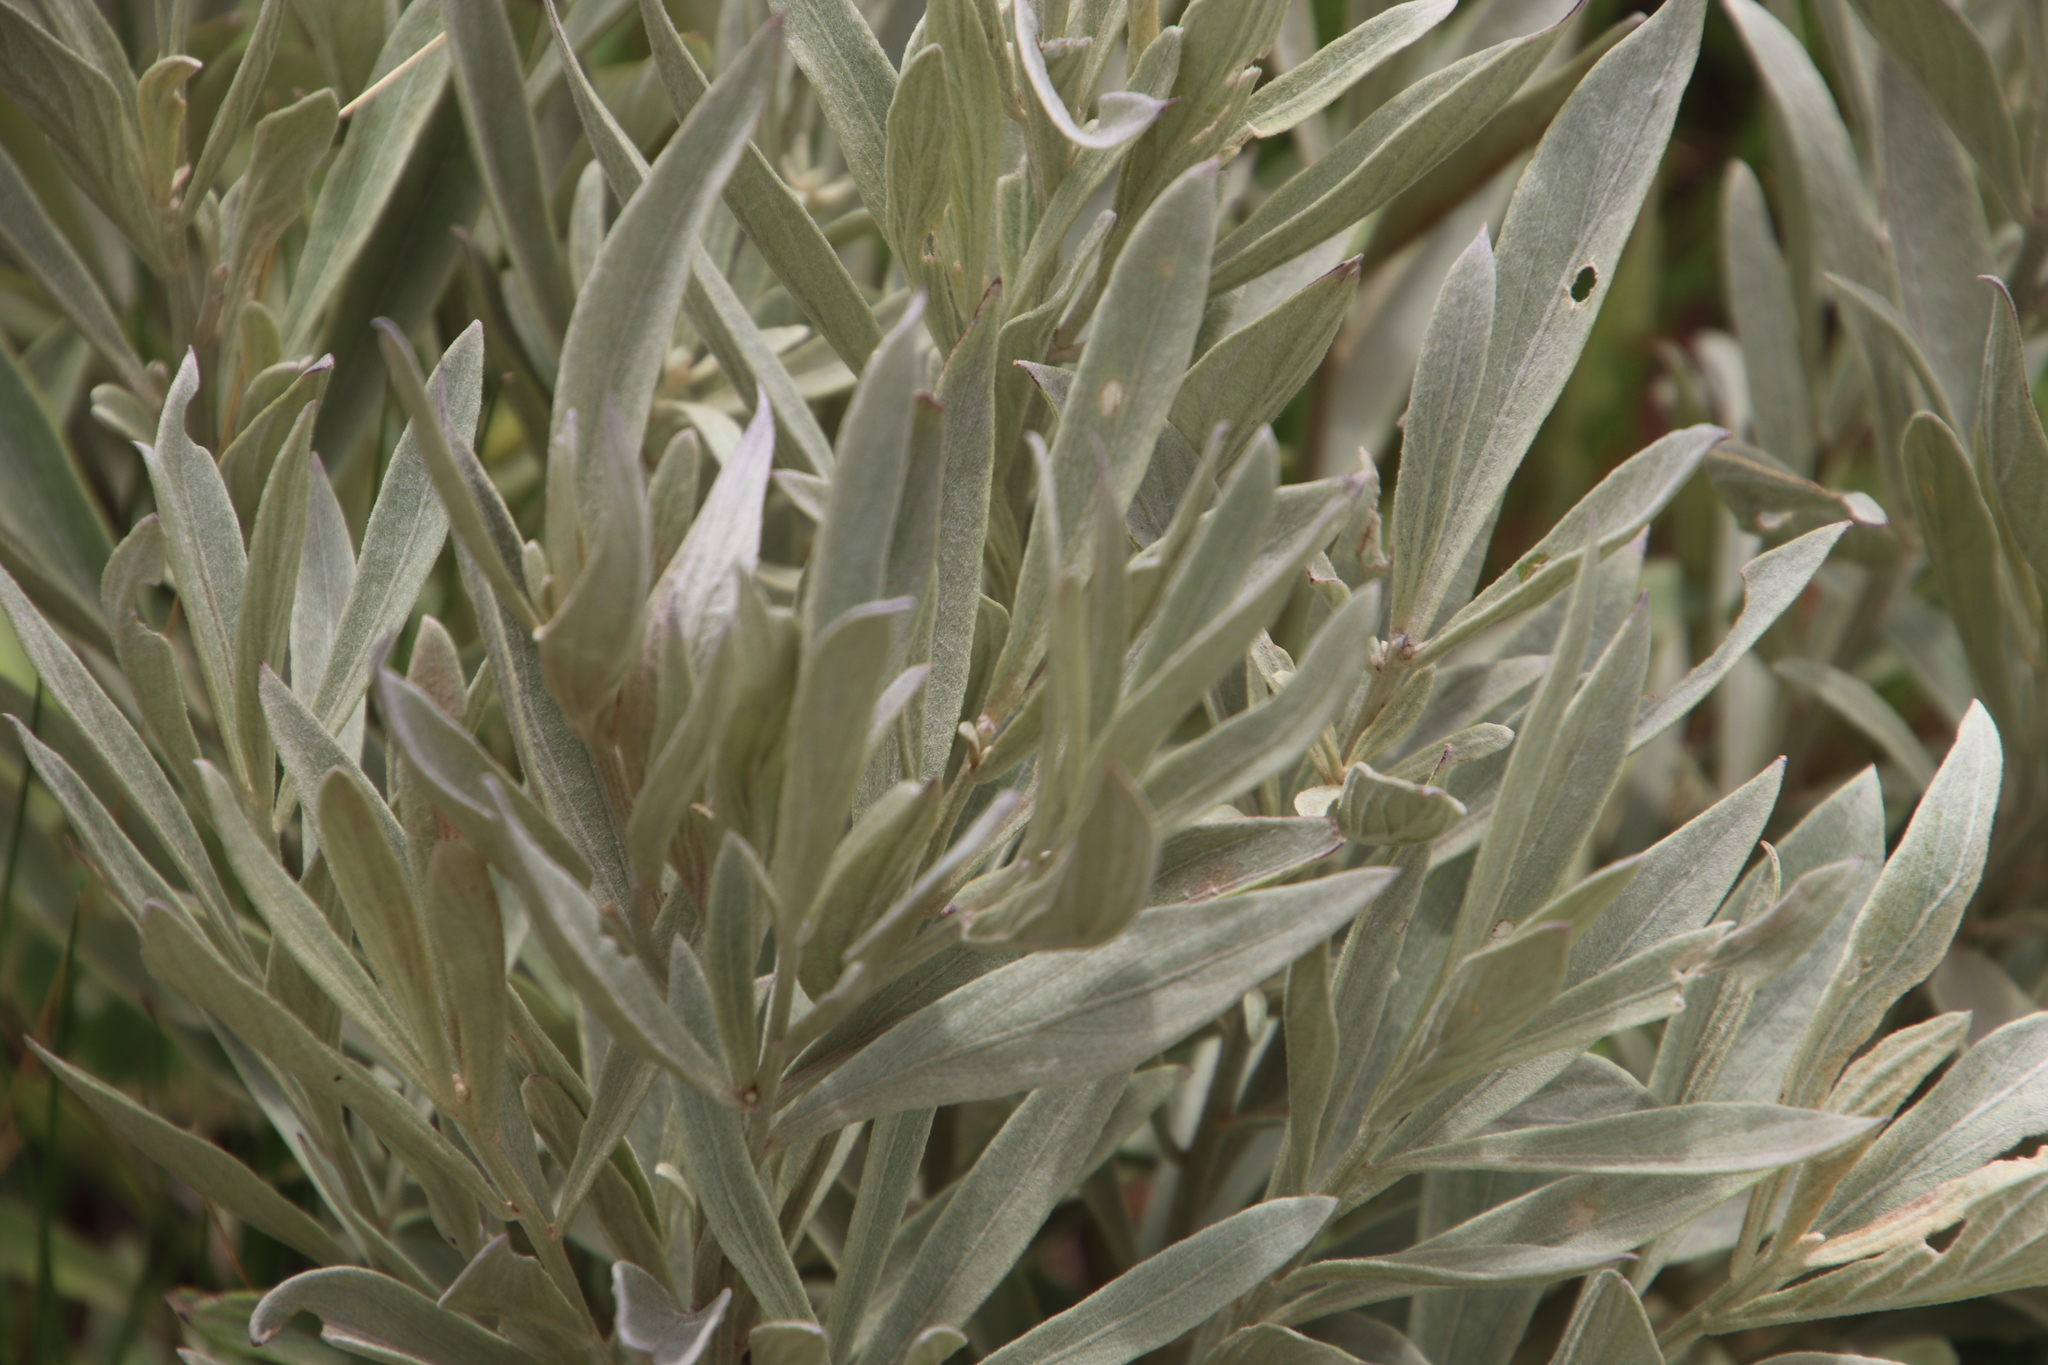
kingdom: Plantae
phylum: Tracheophyta
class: Magnoliopsida
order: Asterales
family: Asteraceae
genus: Hilliardiella
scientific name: Hilliardiella aristata
